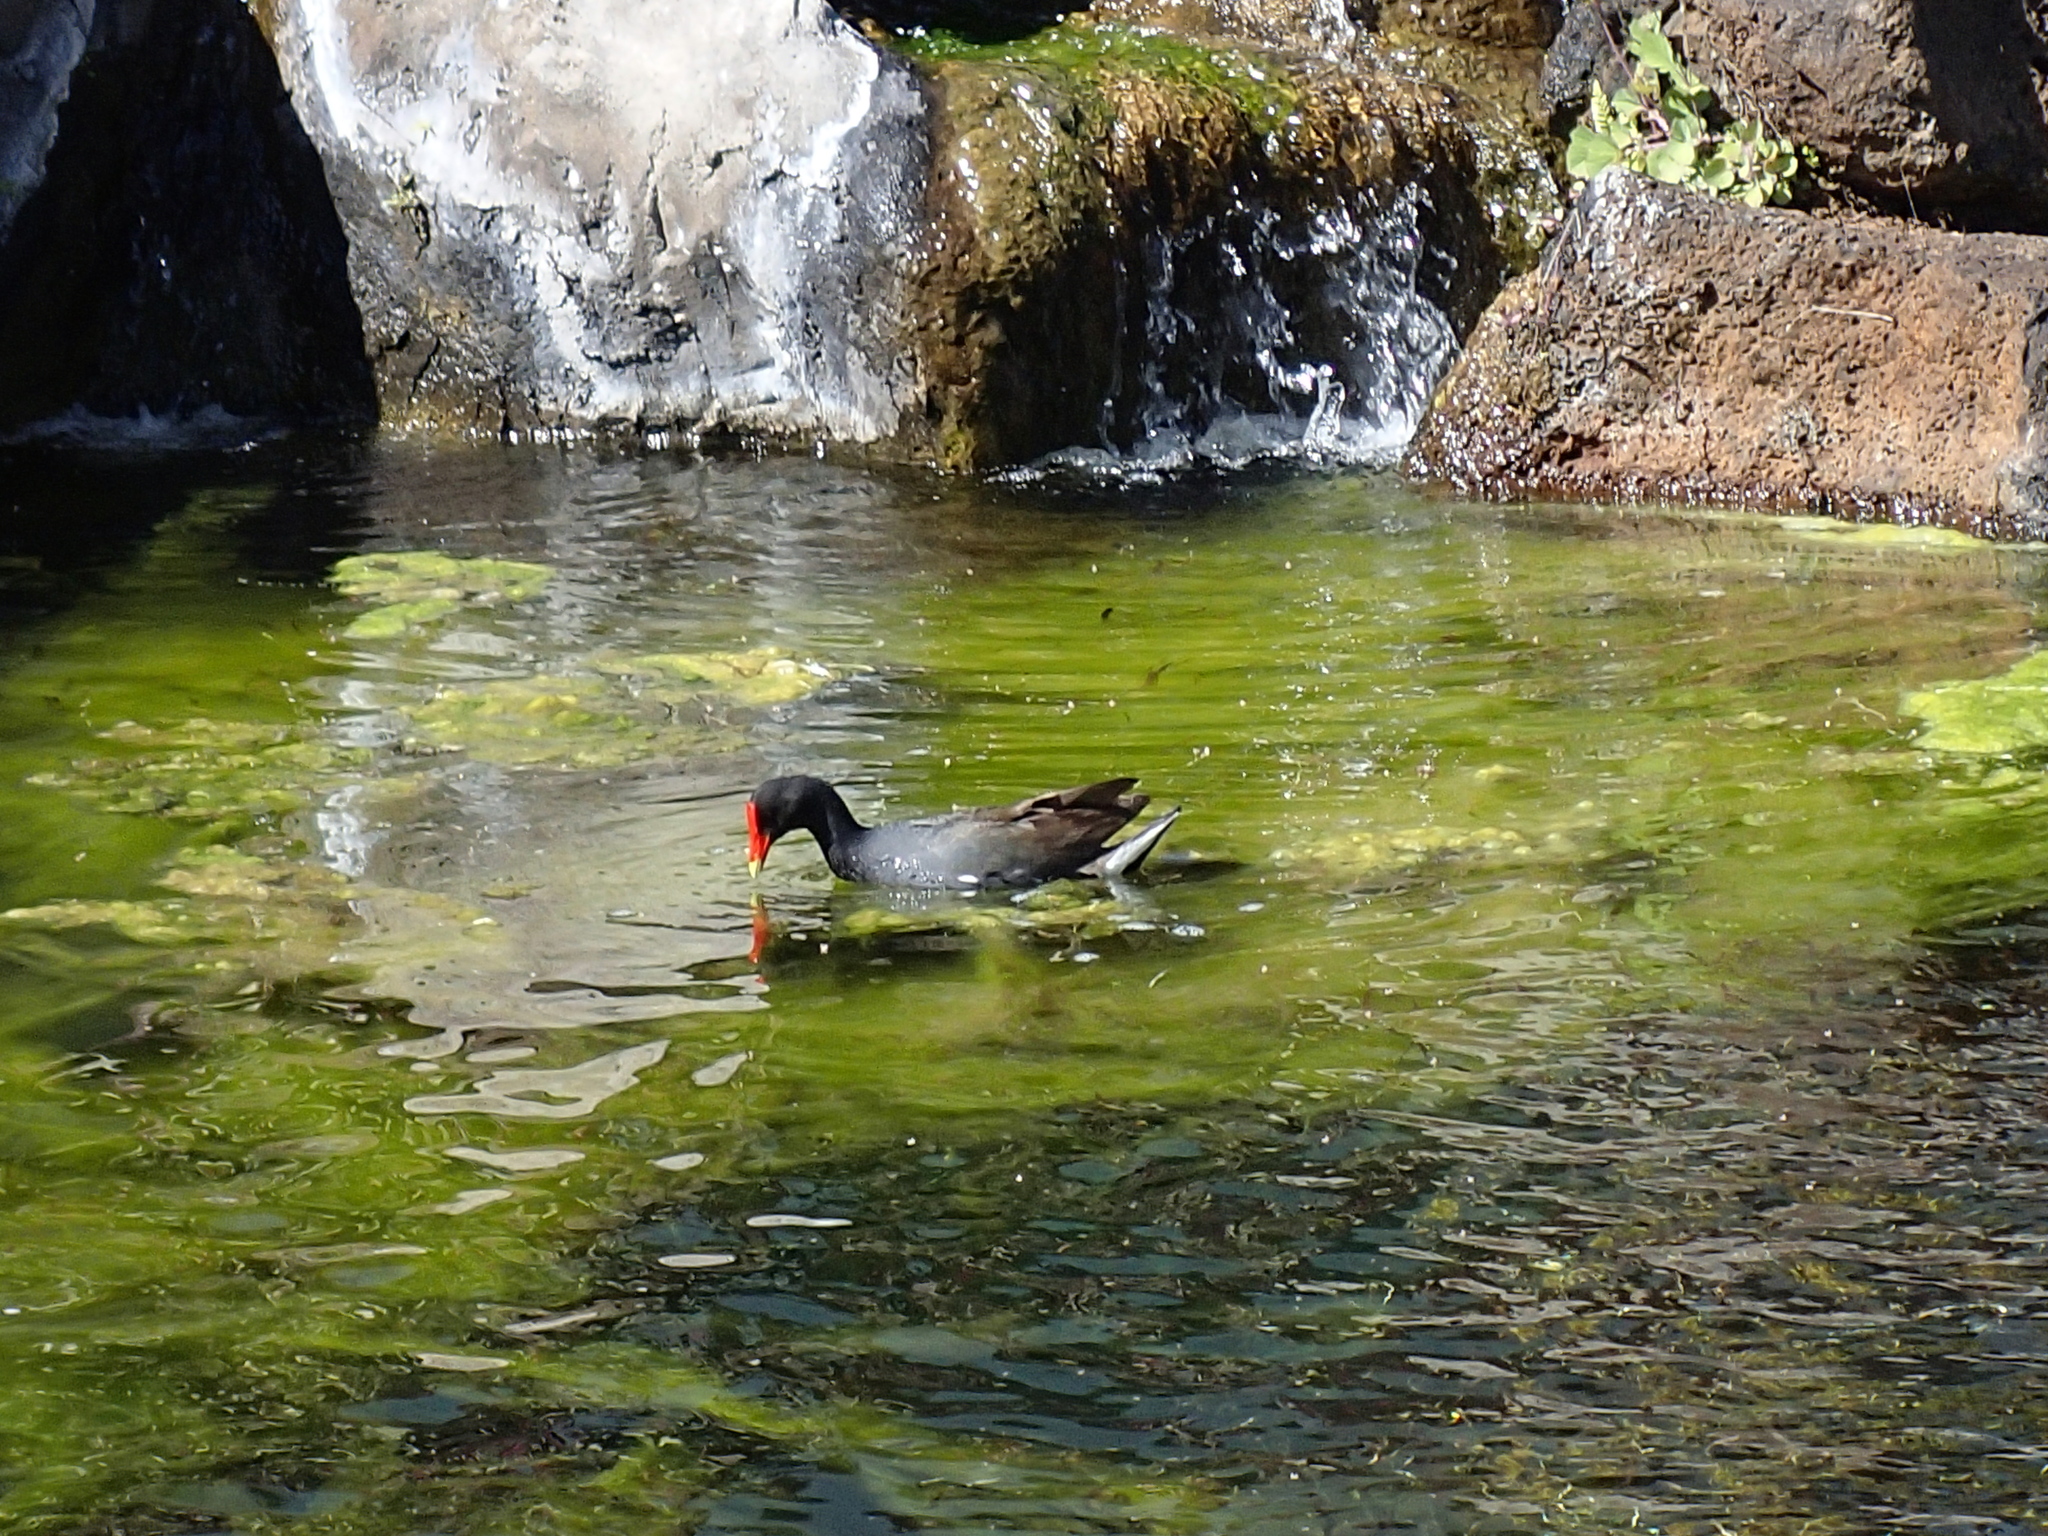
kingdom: Animalia
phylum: Chordata
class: Aves
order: Gruiformes
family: Rallidae
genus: Gallinula
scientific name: Gallinula chloropus
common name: Common moorhen
